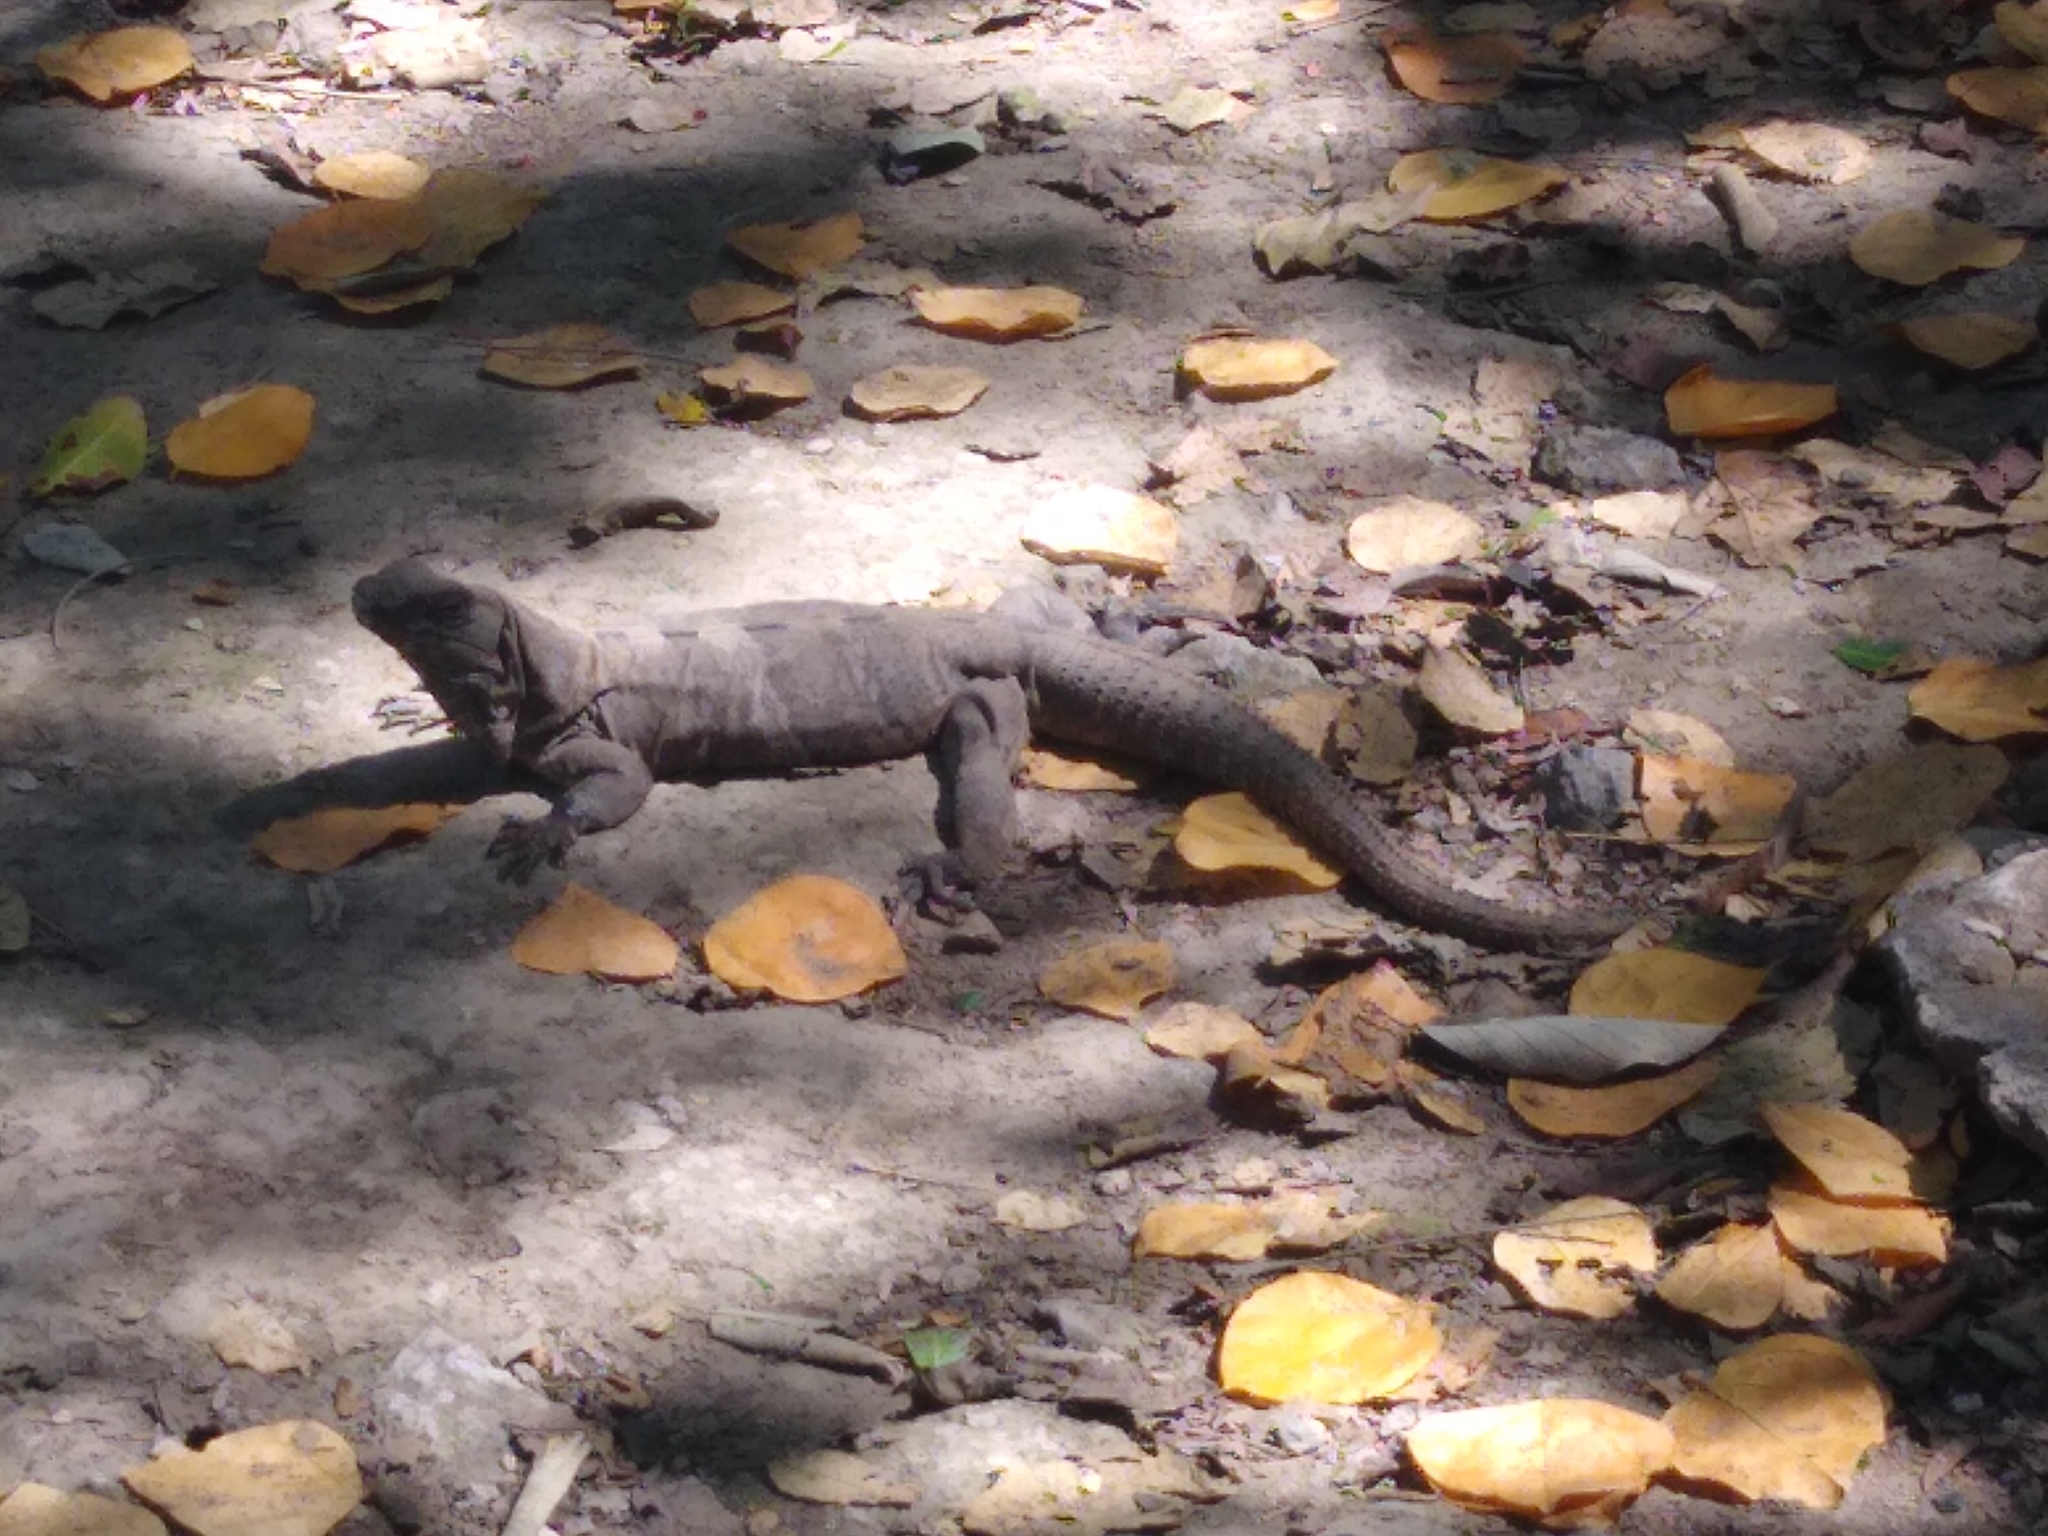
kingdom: Animalia
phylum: Chordata
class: Squamata
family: Iguanidae
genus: Ctenosaura
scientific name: Ctenosaura similis
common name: Black spiny-tailed iguana
